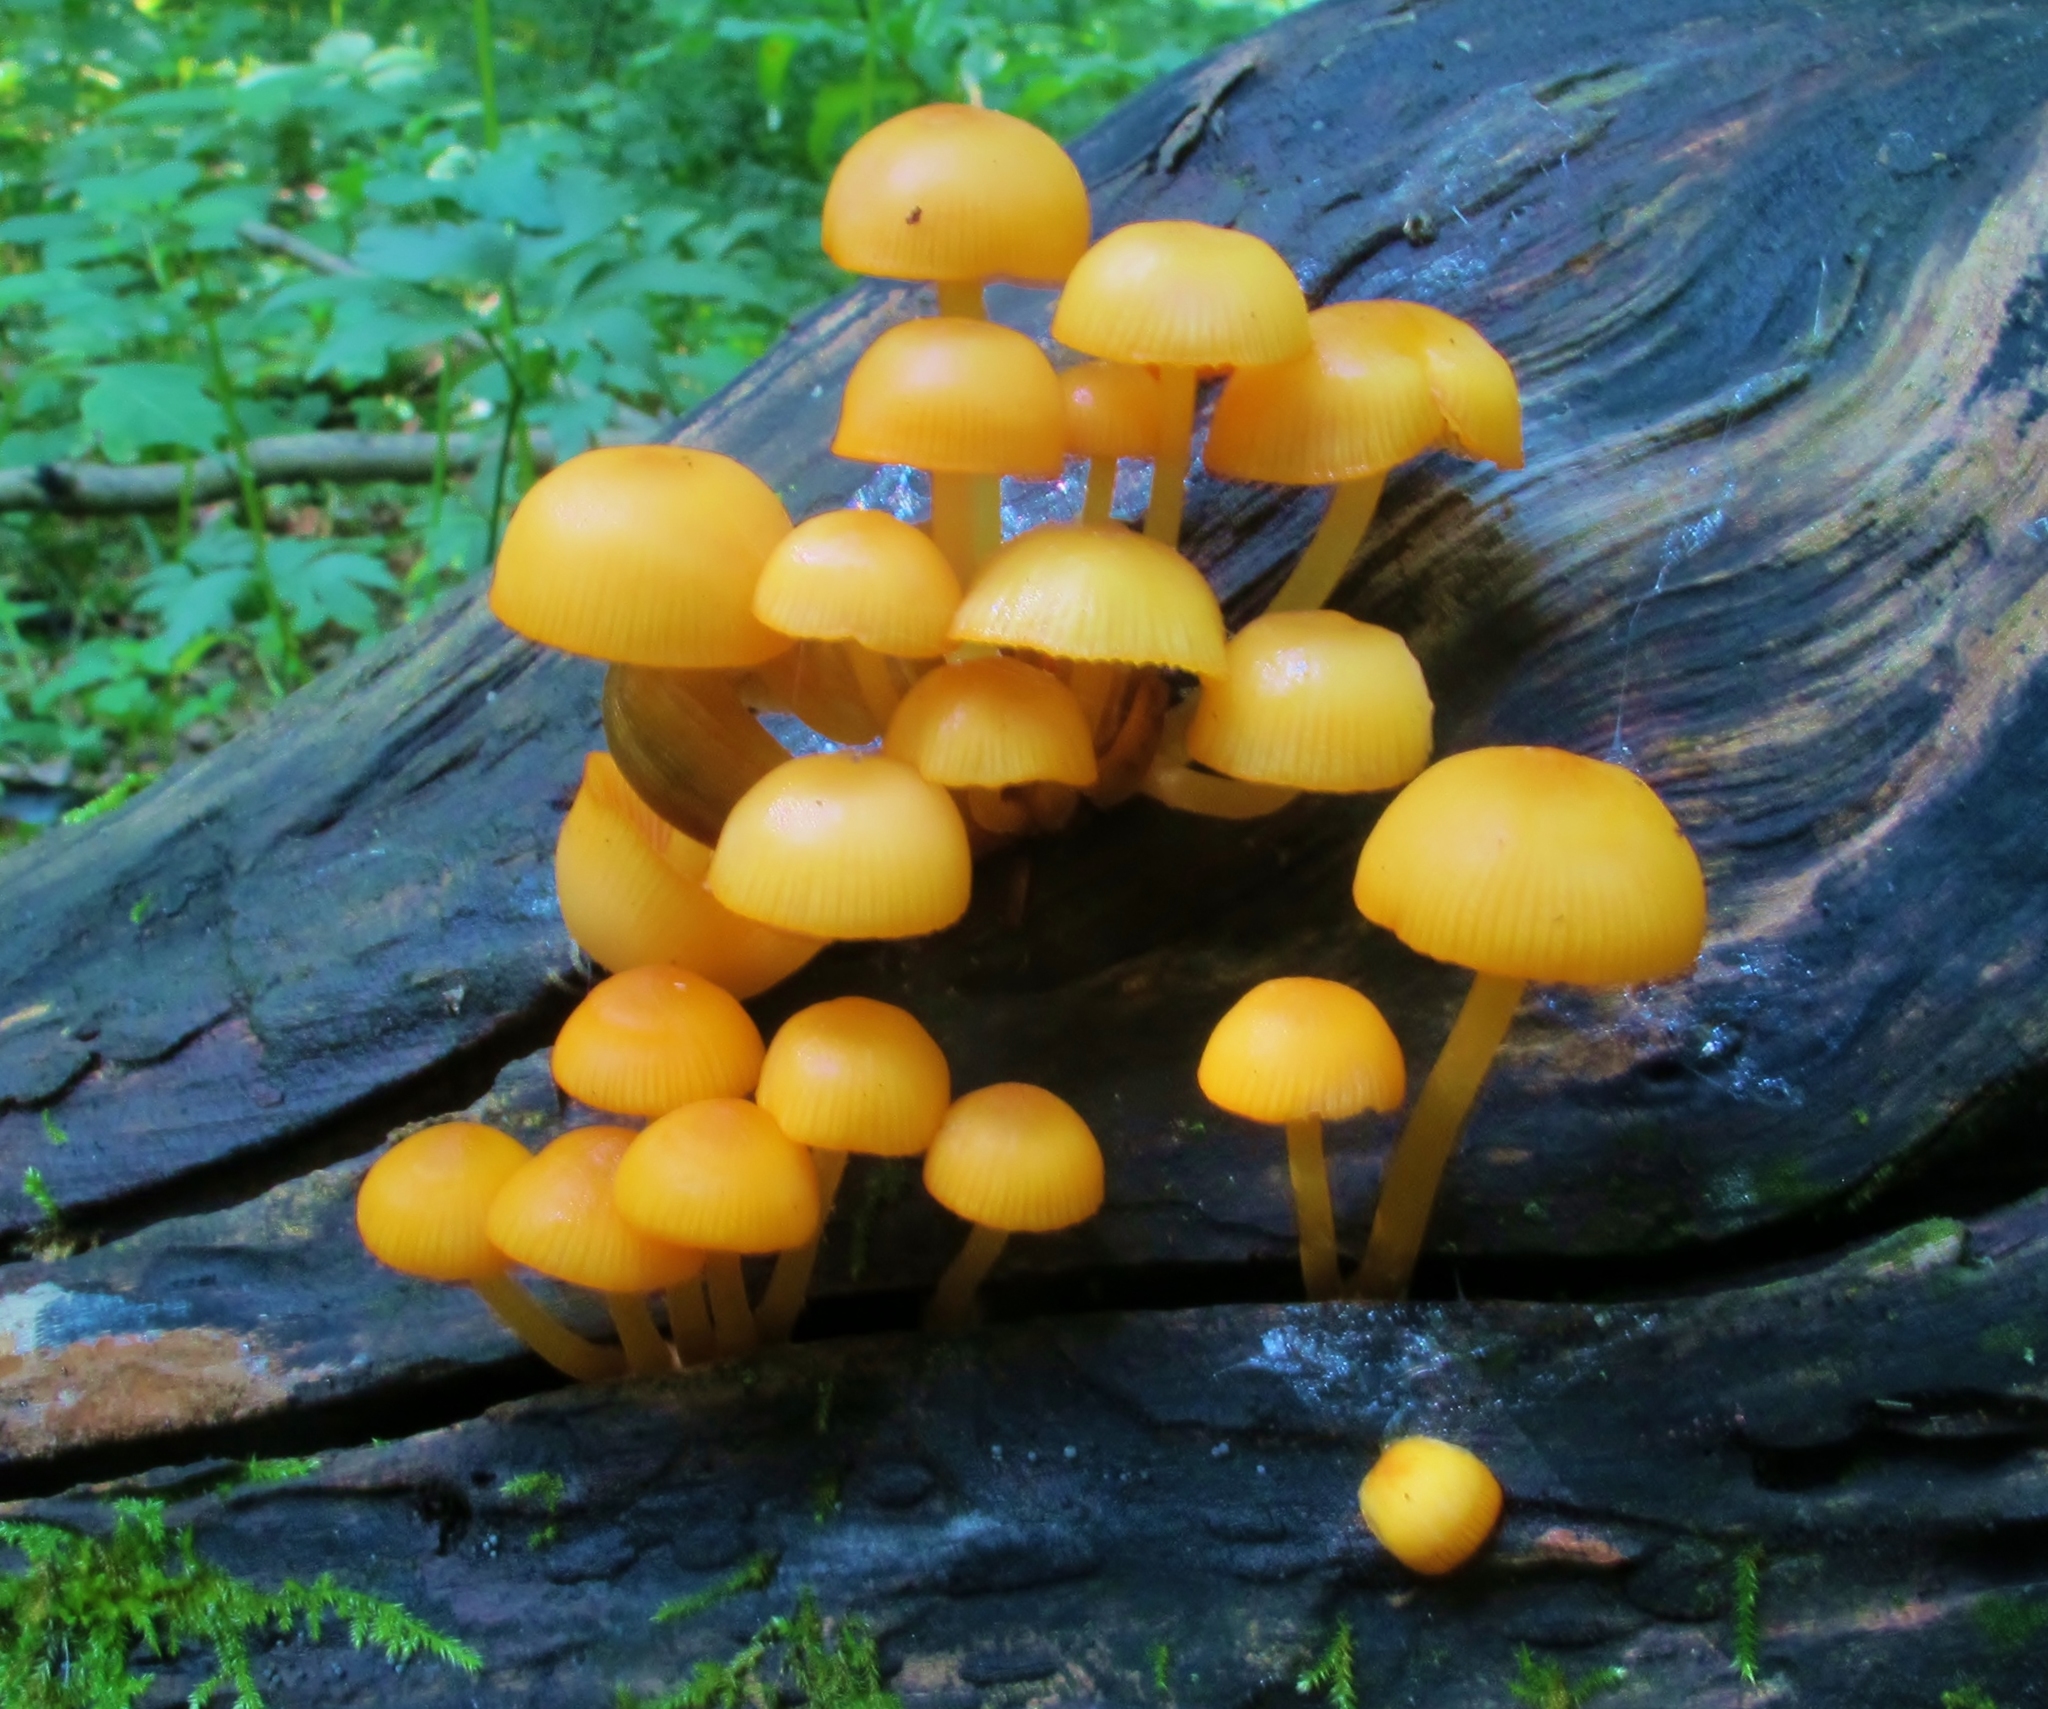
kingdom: Fungi
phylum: Basidiomycota
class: Agaricomycetes
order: Agaricales
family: Mycenaceae
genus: Mycena
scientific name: Mycena leaiana
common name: Orange mycena
